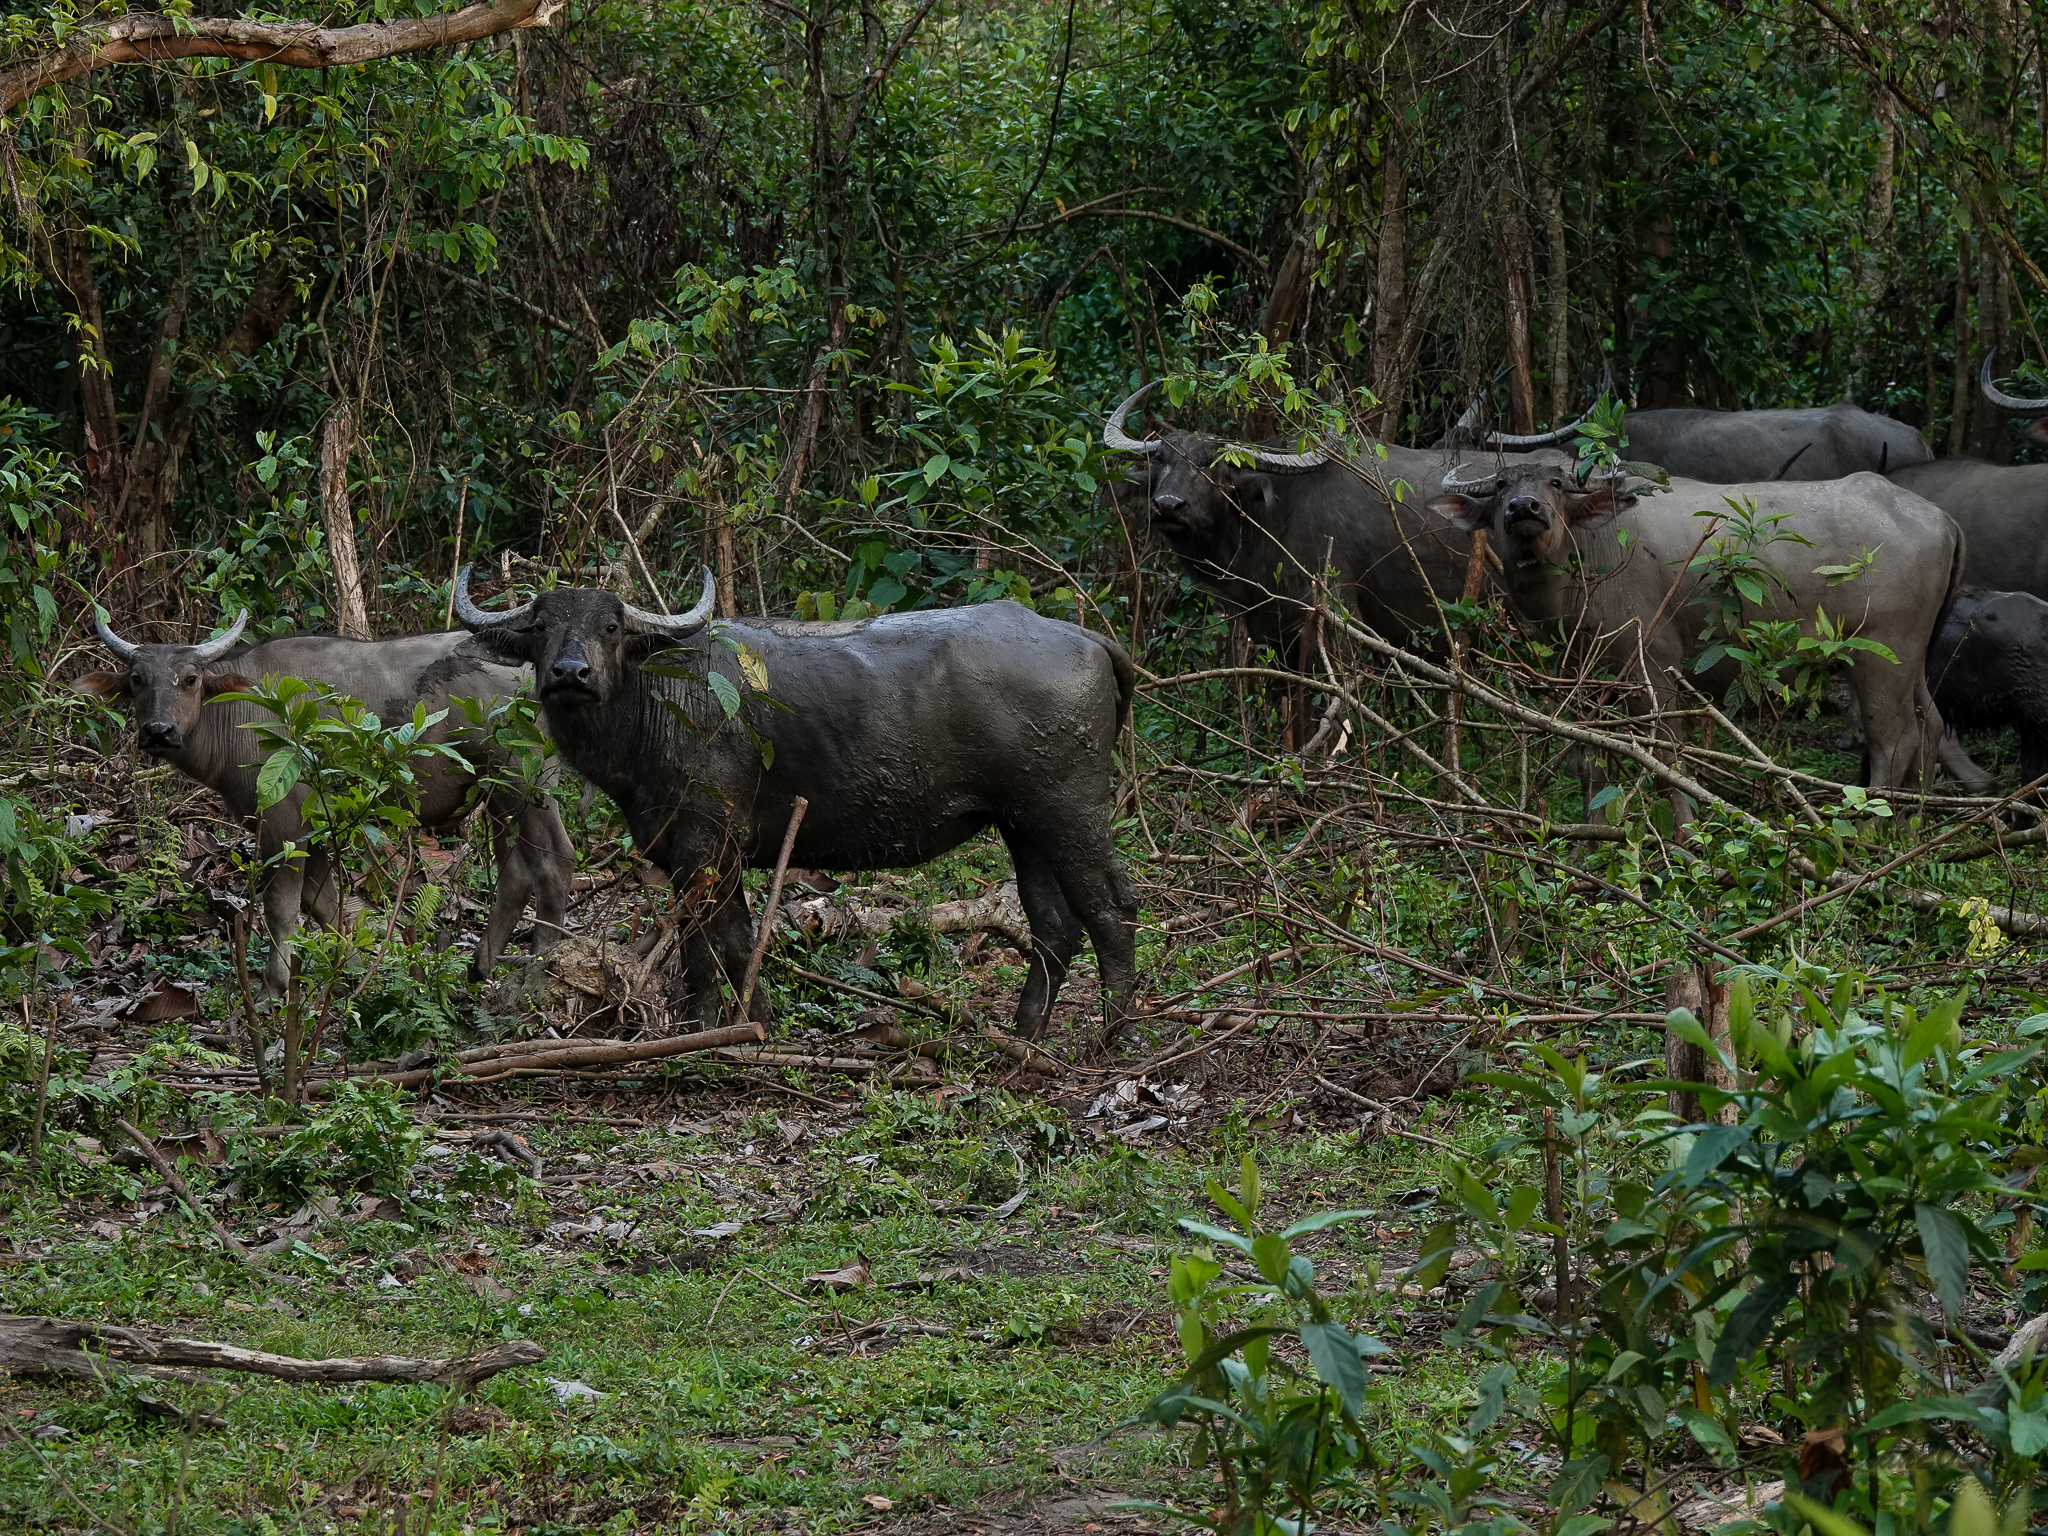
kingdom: Animalia
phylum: Chordata
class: Mammalia
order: Artiodactyla
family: Bovidae
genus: Bubalus
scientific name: Bubalus bubalis
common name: Water buffalo
